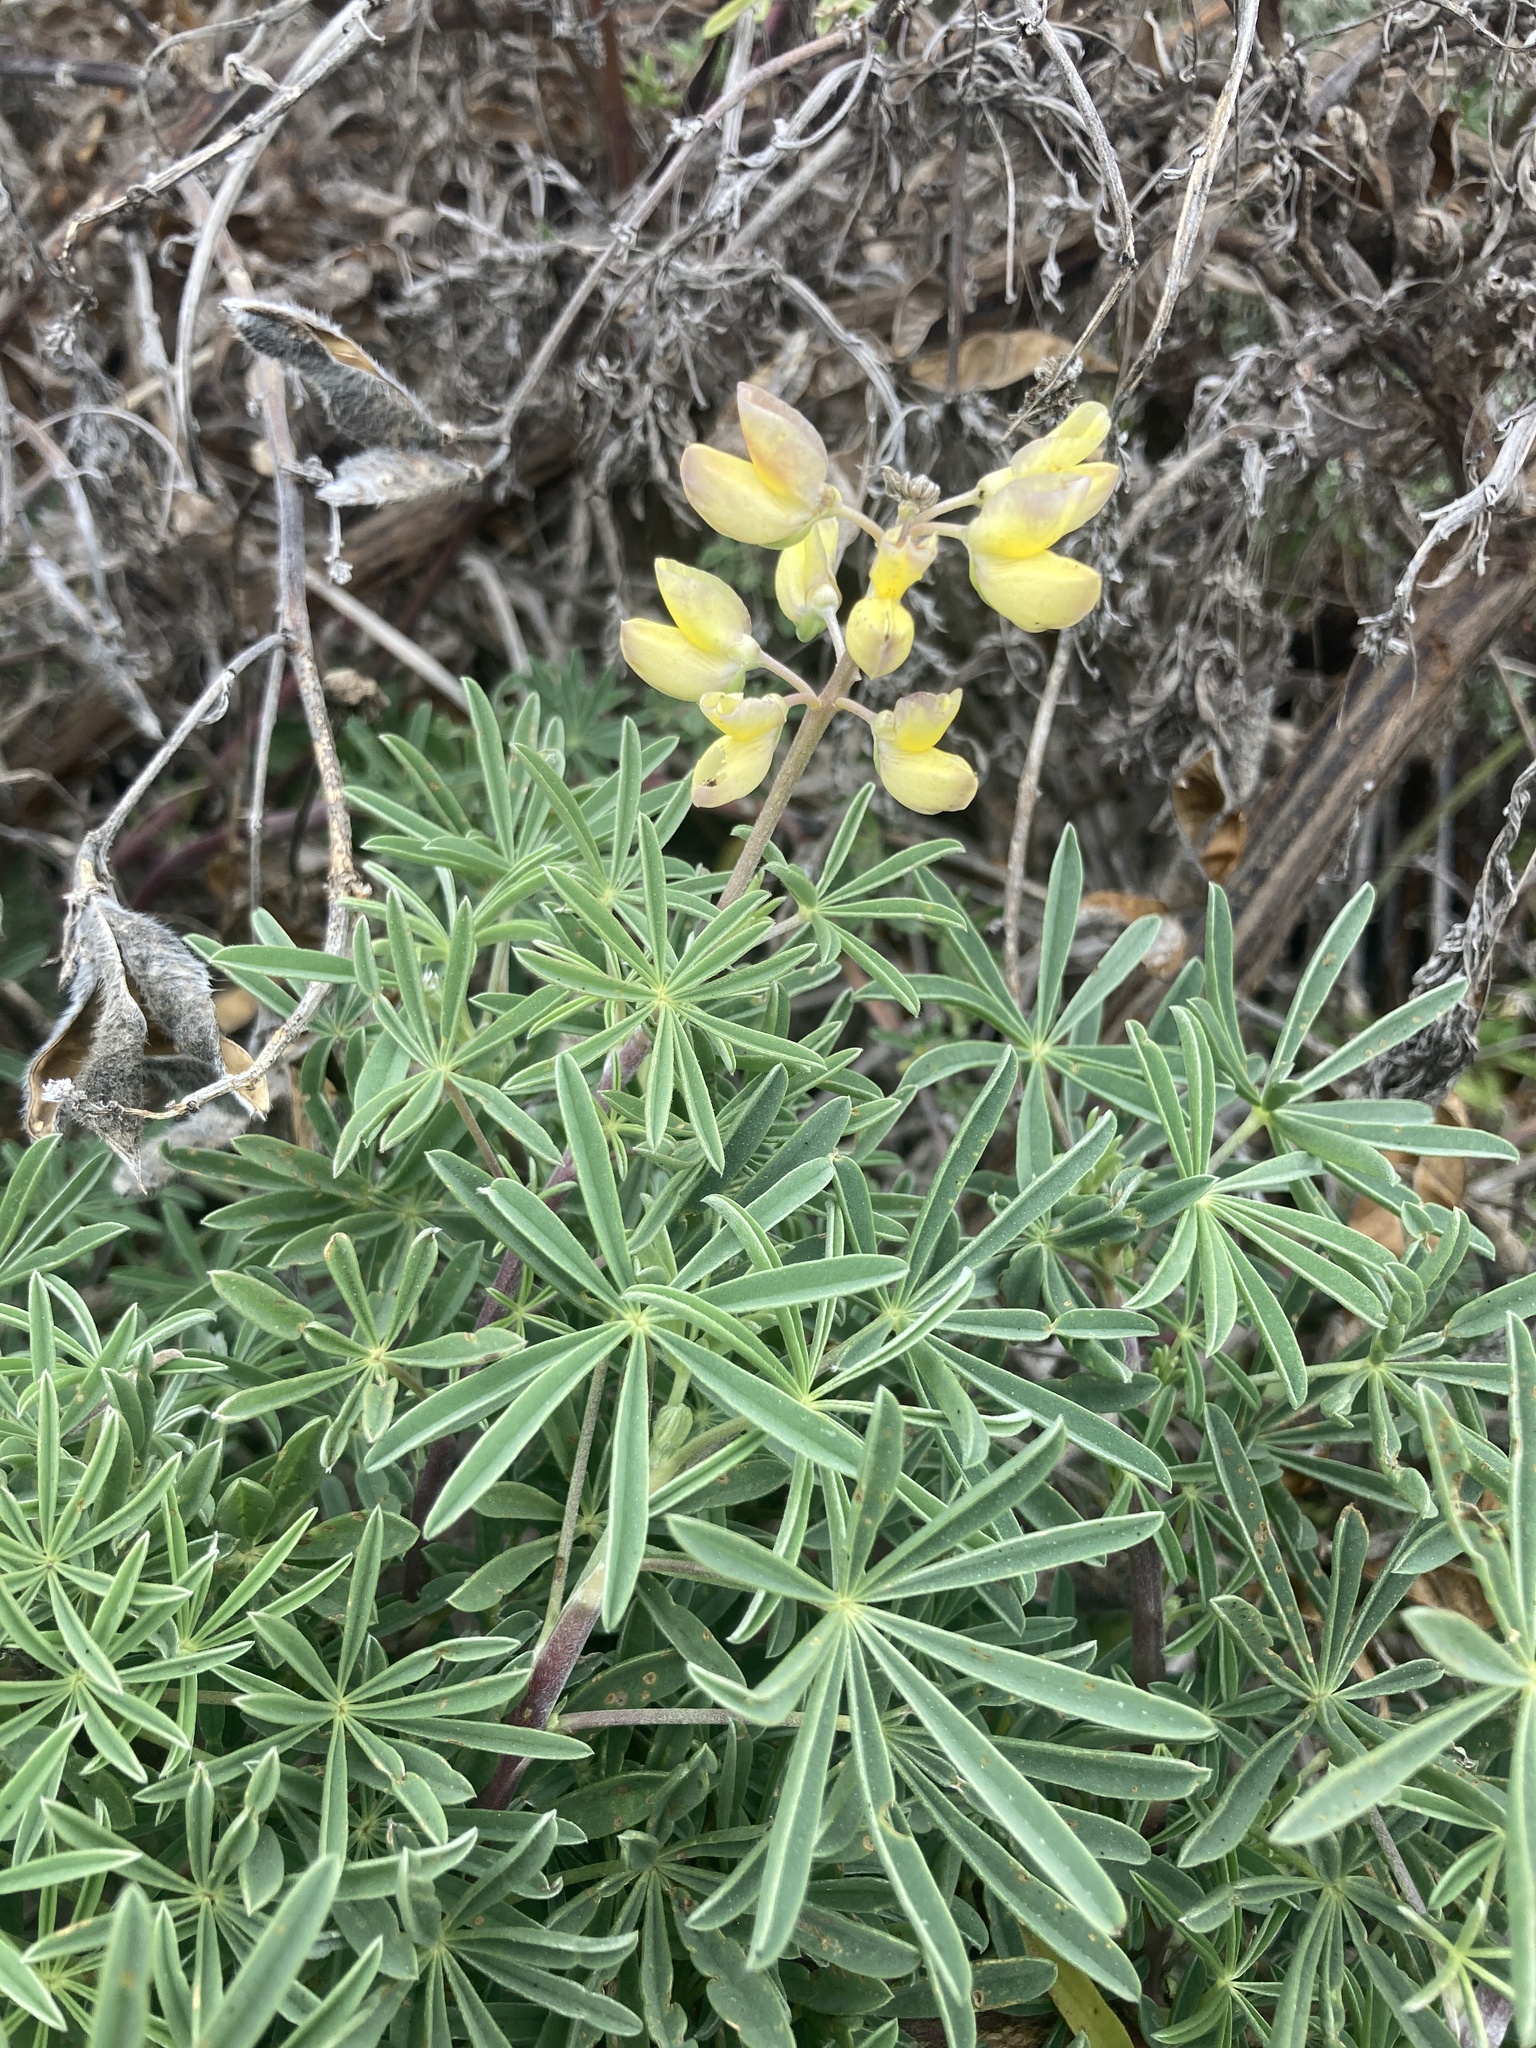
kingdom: Plantae
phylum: Tracheophyta
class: Magnoliopsida
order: Fabales
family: Fabaceae
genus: Lupinus
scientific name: Lupinus arboreus
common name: Yellow bush lupine
